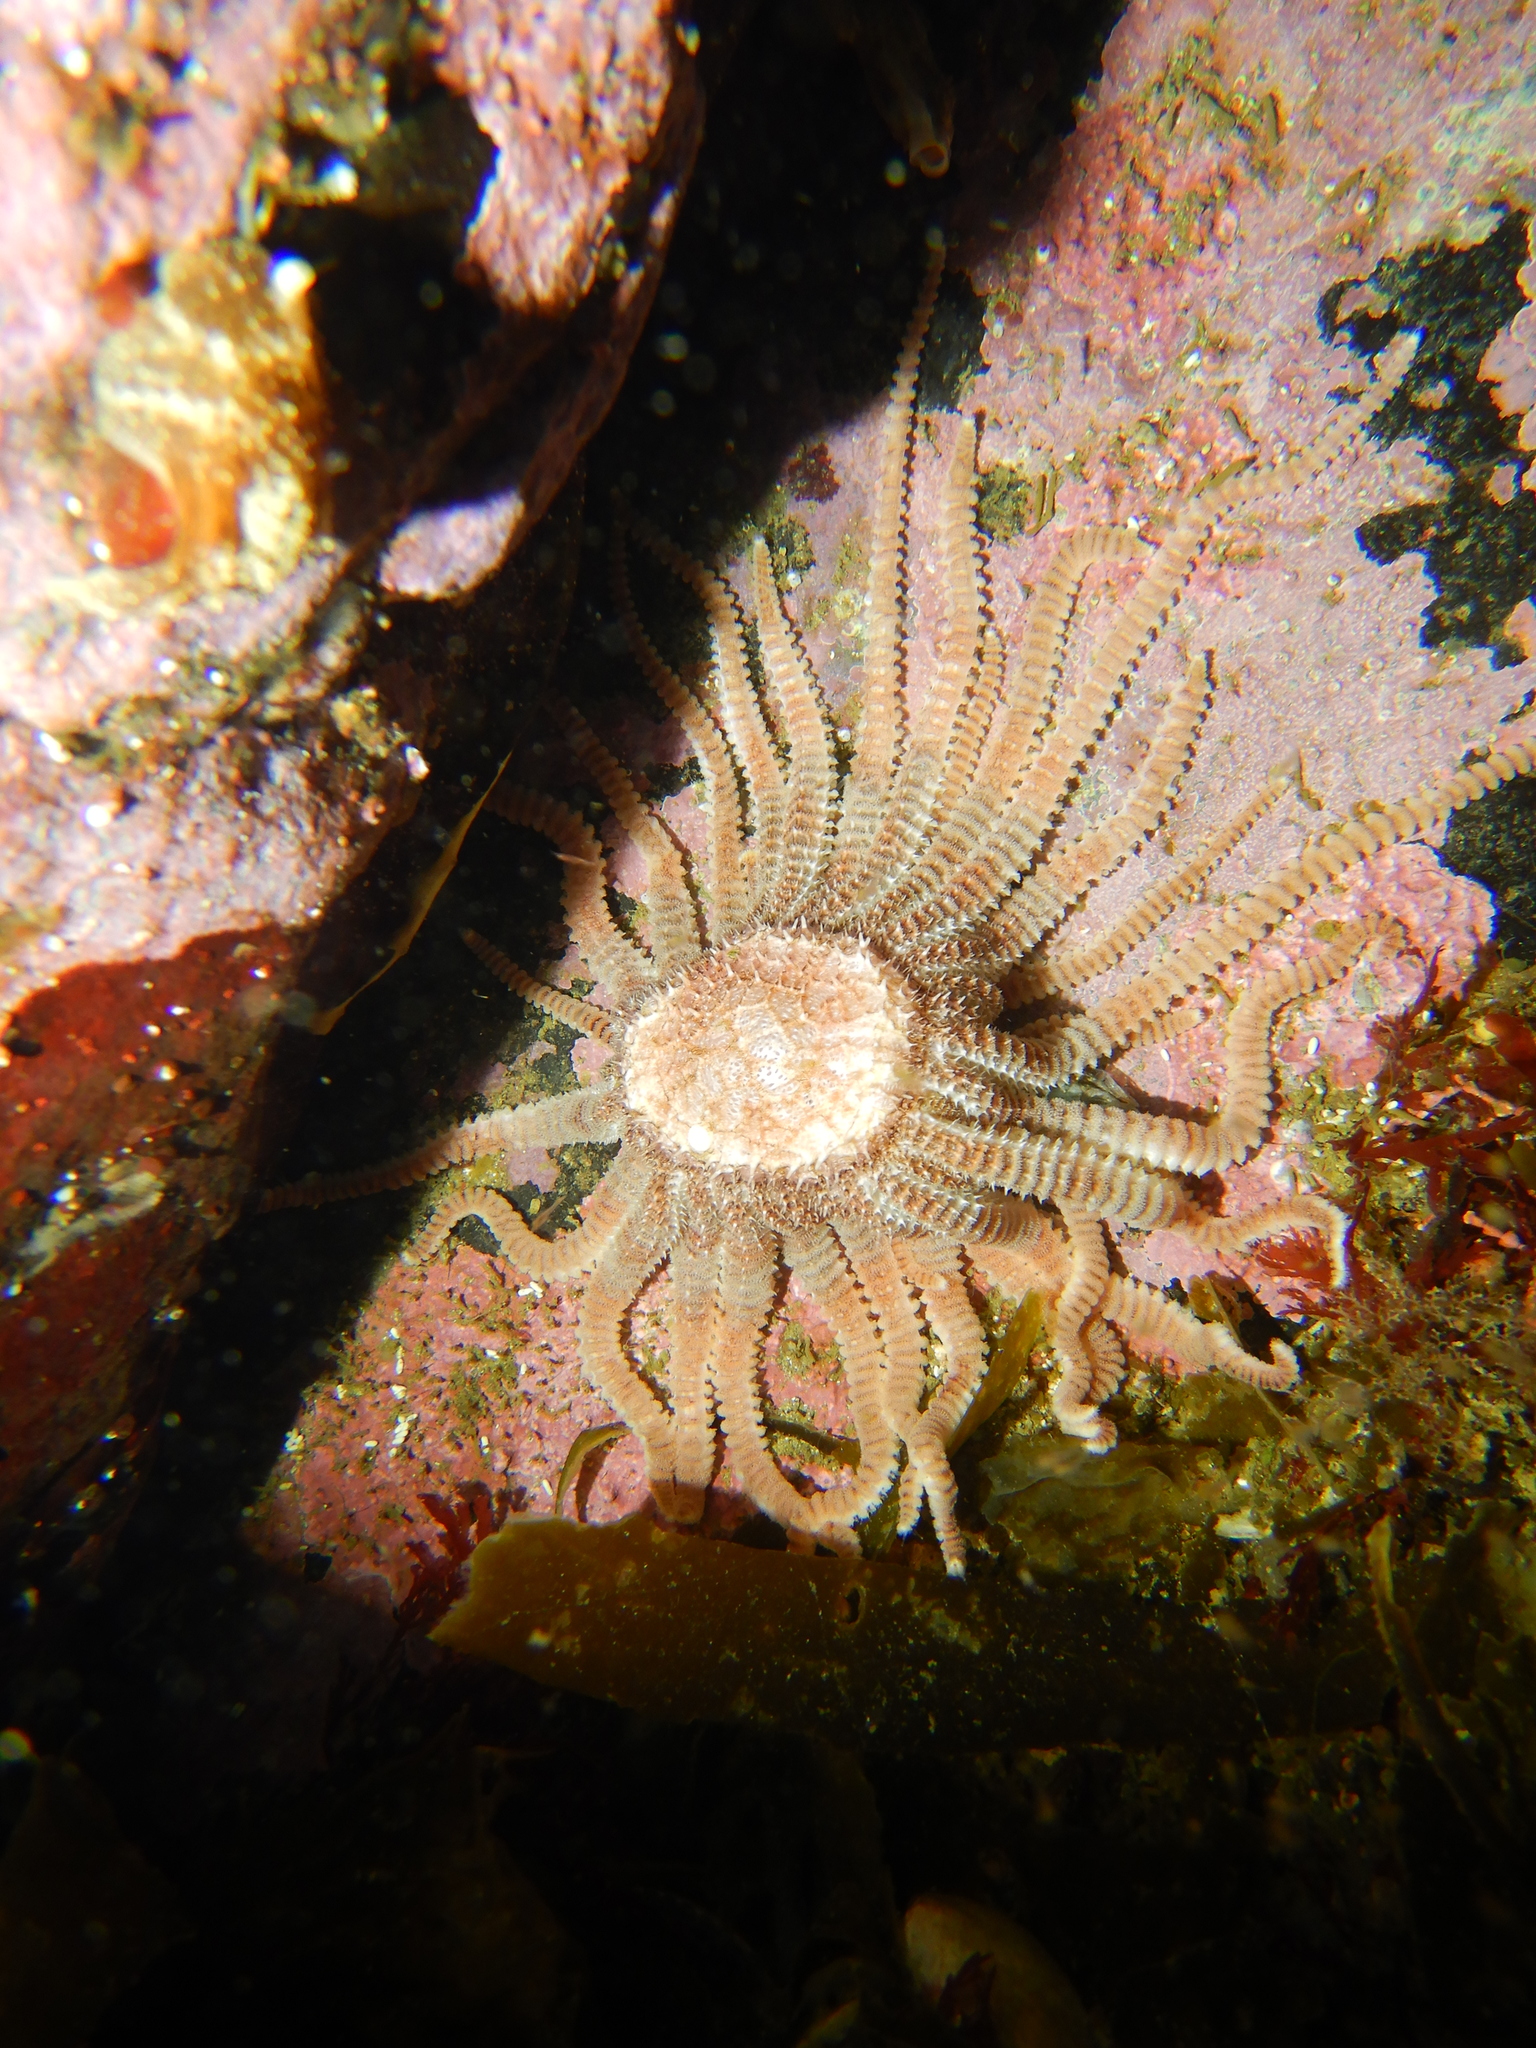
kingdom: Animalia
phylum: Echinodermata
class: Asteroidea
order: Forcipulatida
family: Heliasteridae
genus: Labidiaster
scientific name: Labidiaster radiosus
